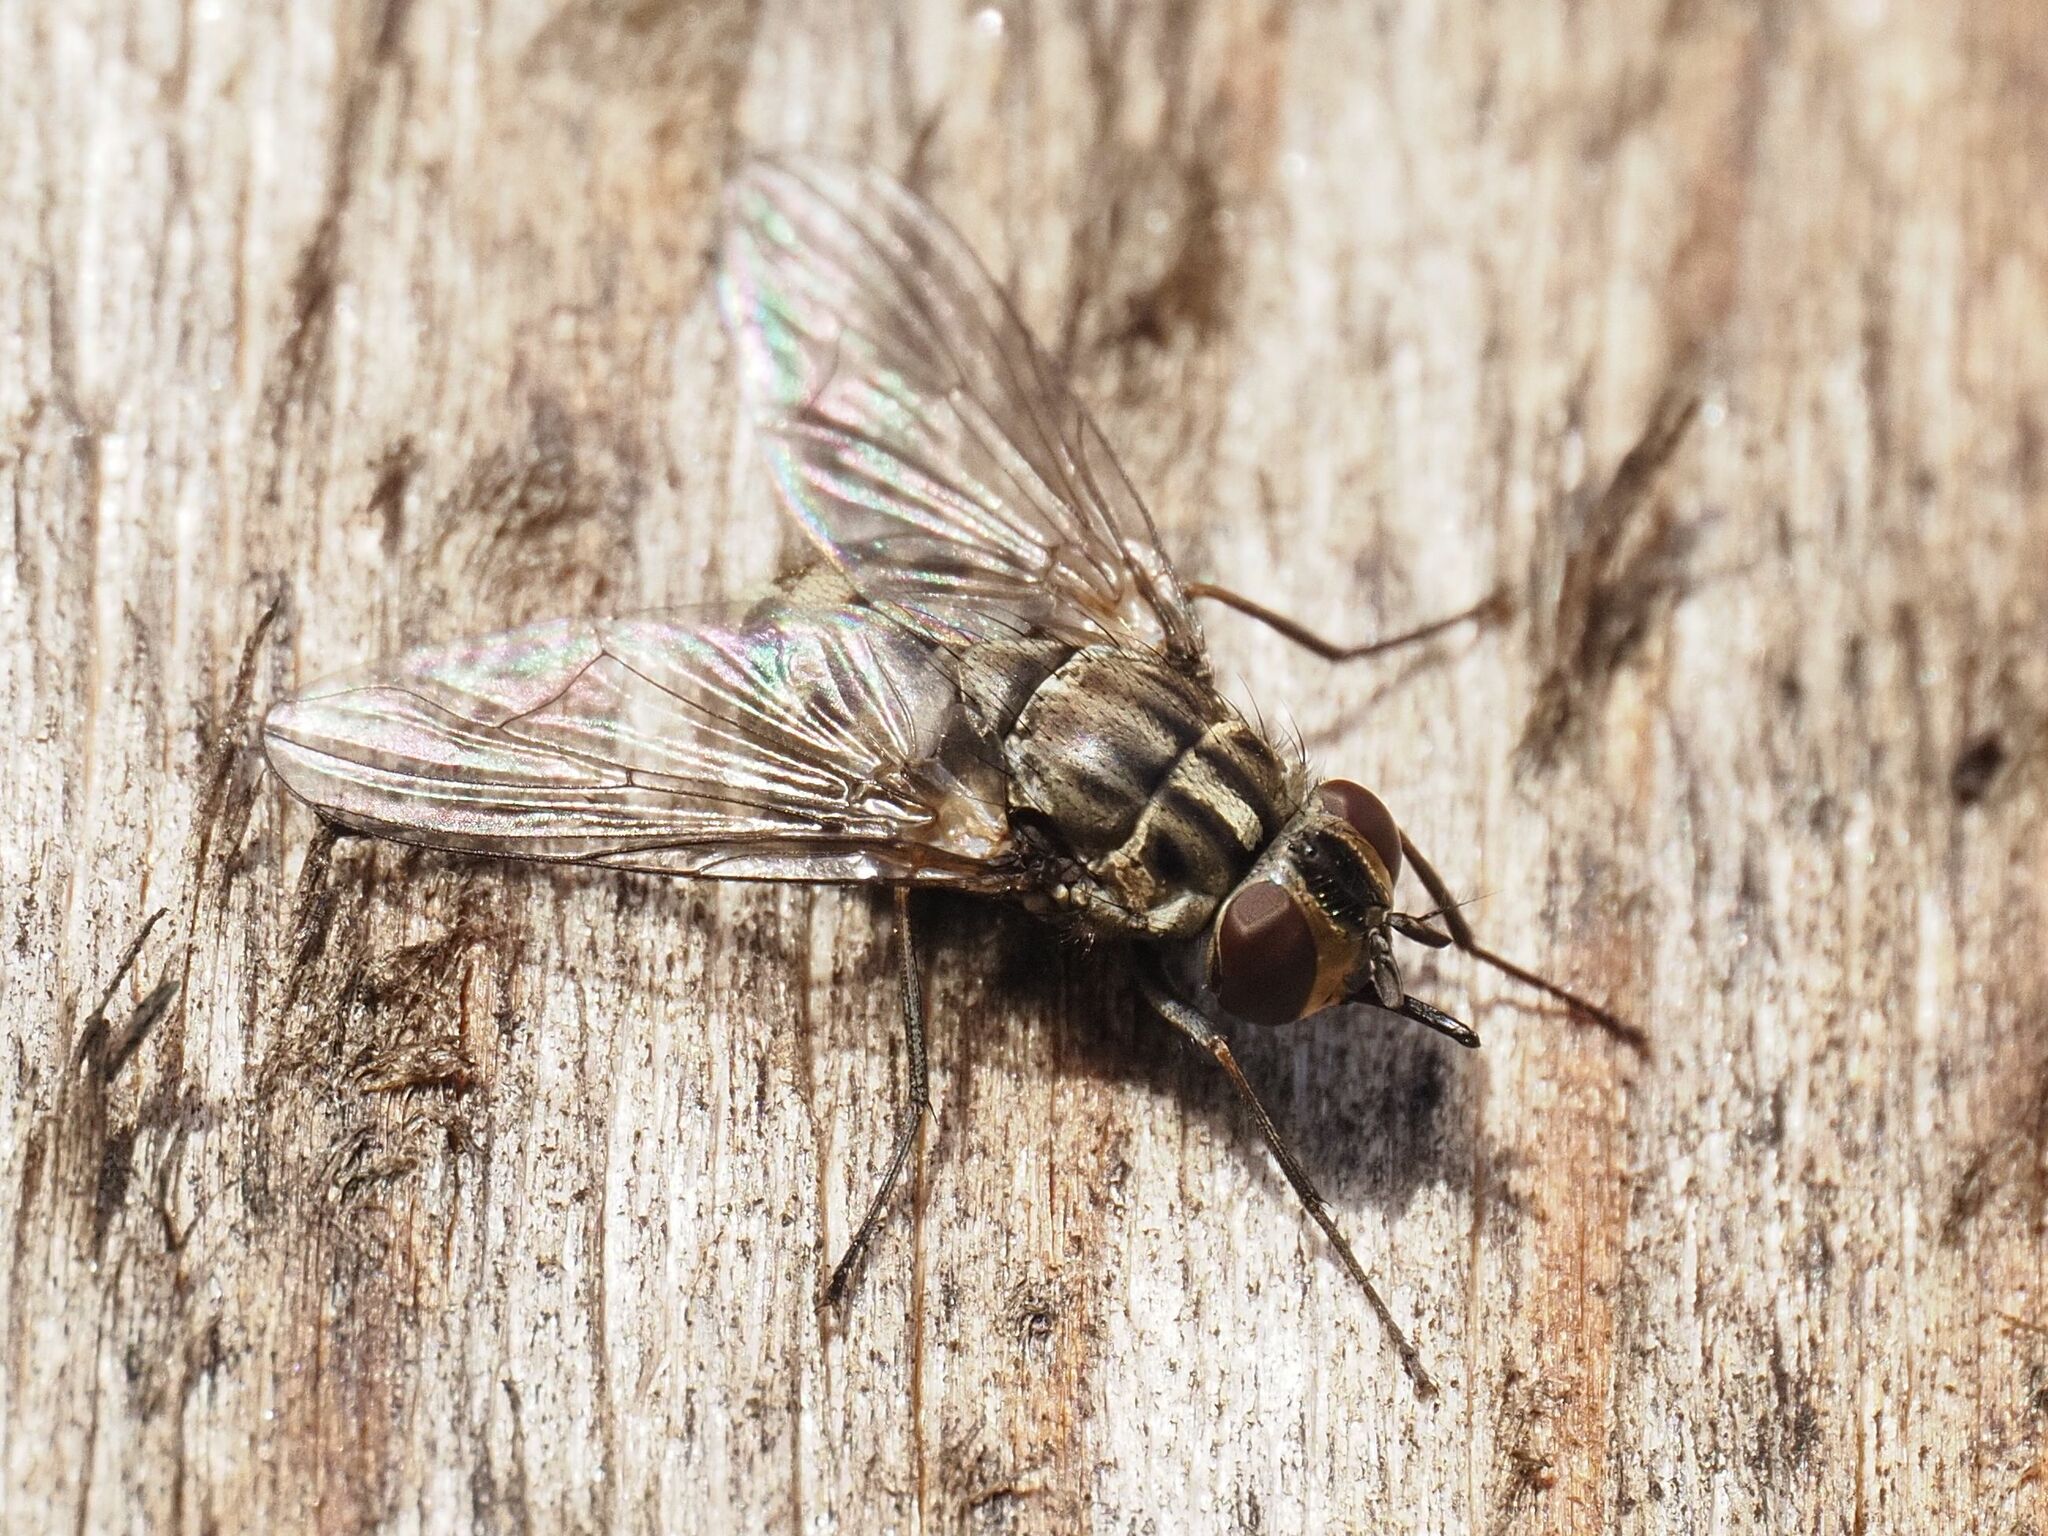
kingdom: Animalia
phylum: Arthropoda
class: Insecta
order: Diptera
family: Muscidae
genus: Stomoxys
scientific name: Stomoxys calcitrans
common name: Stable fly
